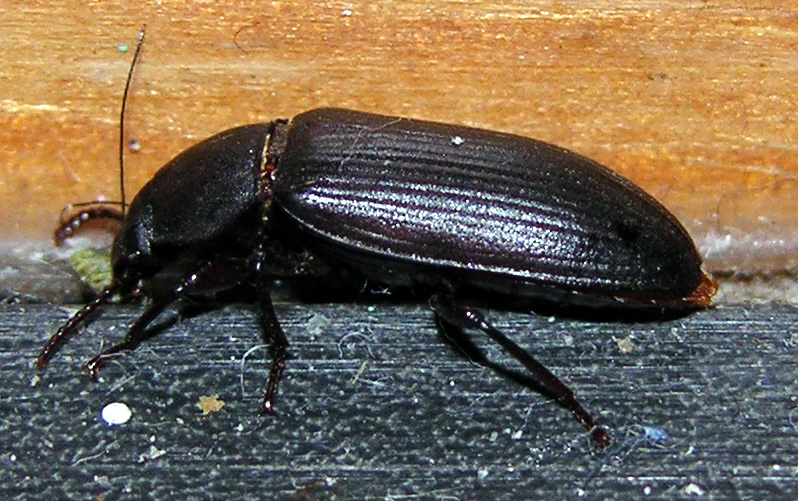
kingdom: Animalia
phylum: Arthropoda
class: Insecta
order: Coleoptera
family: Tenebrionidae
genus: Tenebrio
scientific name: Tenebrio molitor
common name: Hardback beetle
